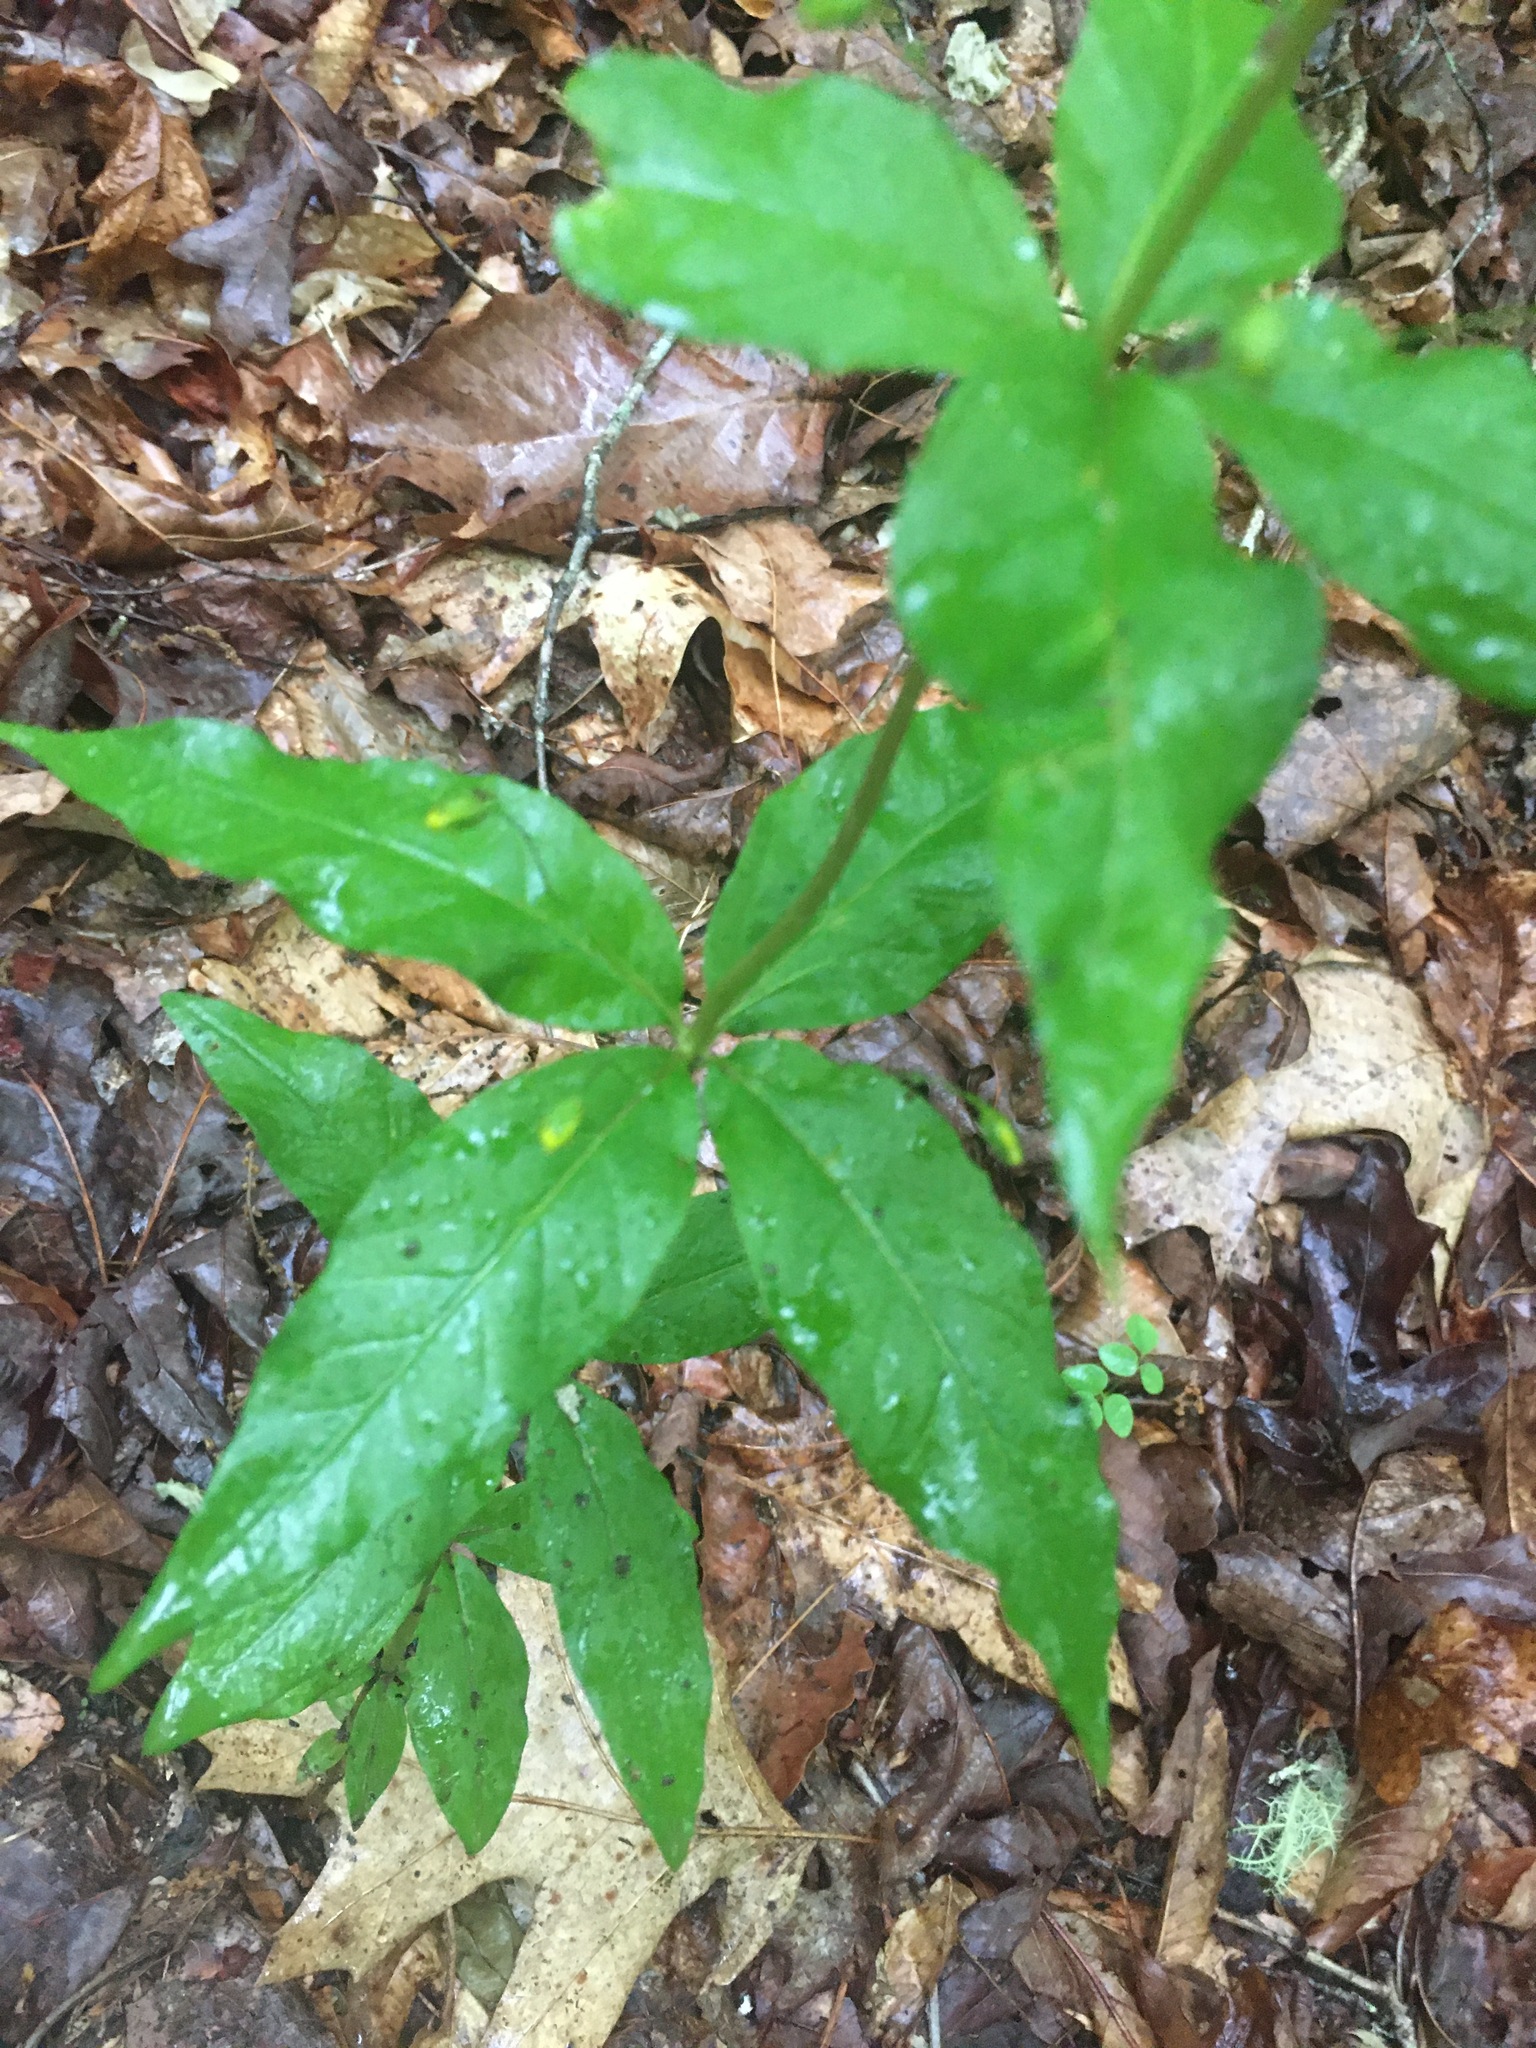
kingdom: Plantae
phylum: Tracheophyta
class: Magnoliopsida
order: Ericales
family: Primulaceae
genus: Lysimachia
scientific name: Lysimachia quadrifolia
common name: Whorled loosestrife
